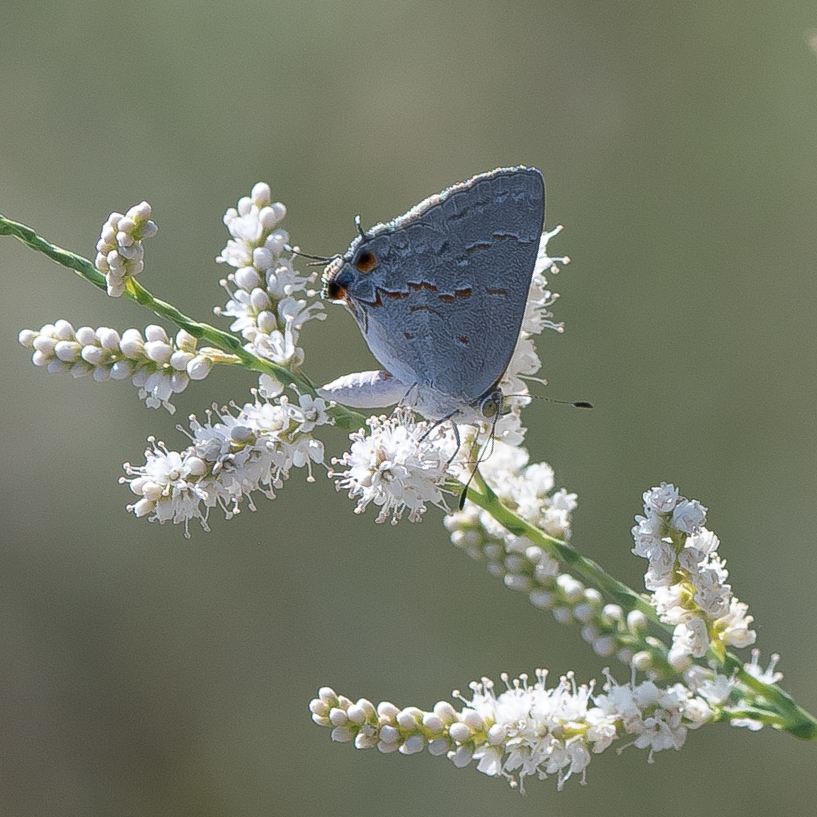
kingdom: Animalia
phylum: Arthropoda
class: Insecta
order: Lepidoptera
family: Lycaenidae
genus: Ministrymon
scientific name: Ministrymon leda
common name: Leda ministreak
